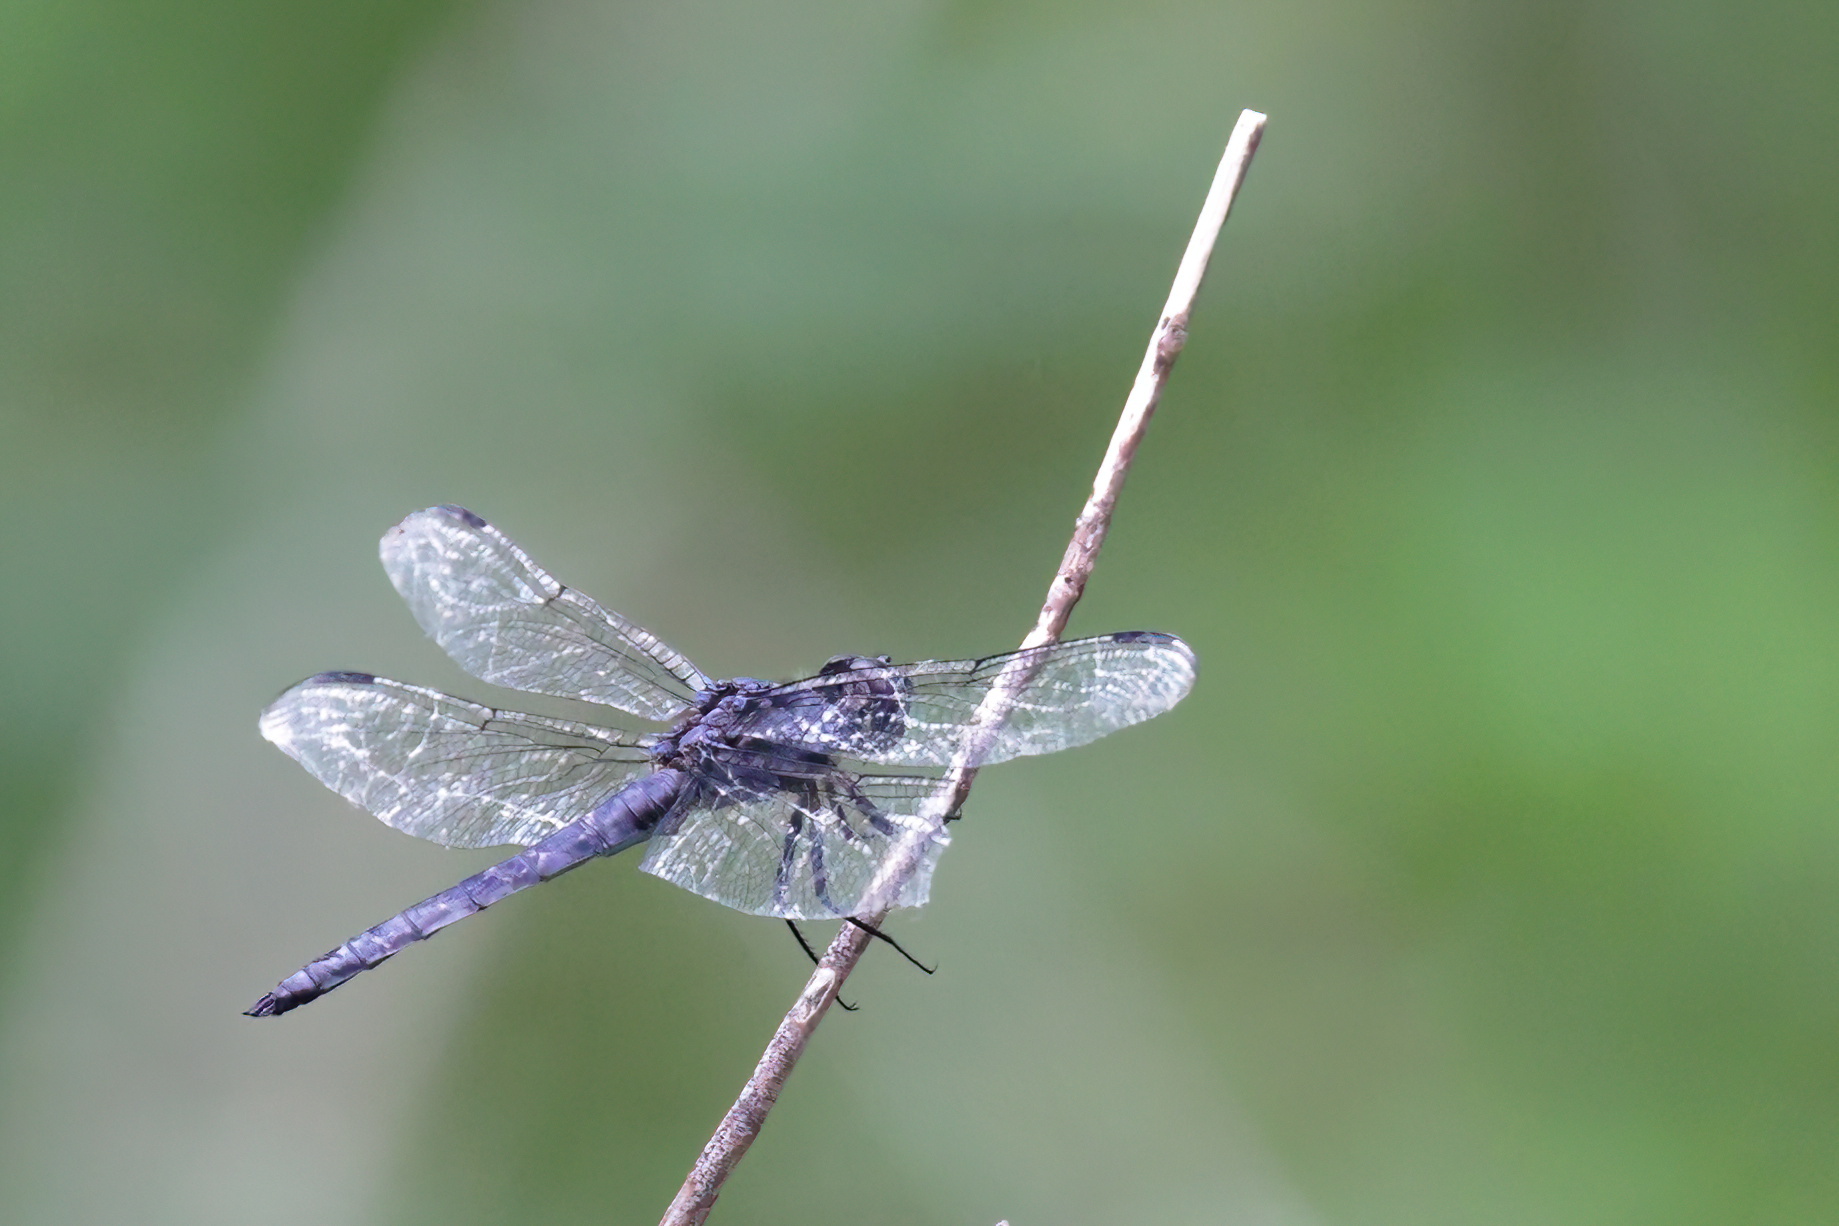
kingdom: Animalia
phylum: Arthropoda
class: Insecta
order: Odonata
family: Libellulidae
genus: Libellula
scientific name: Libellula incesta
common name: Slaty skimmer
